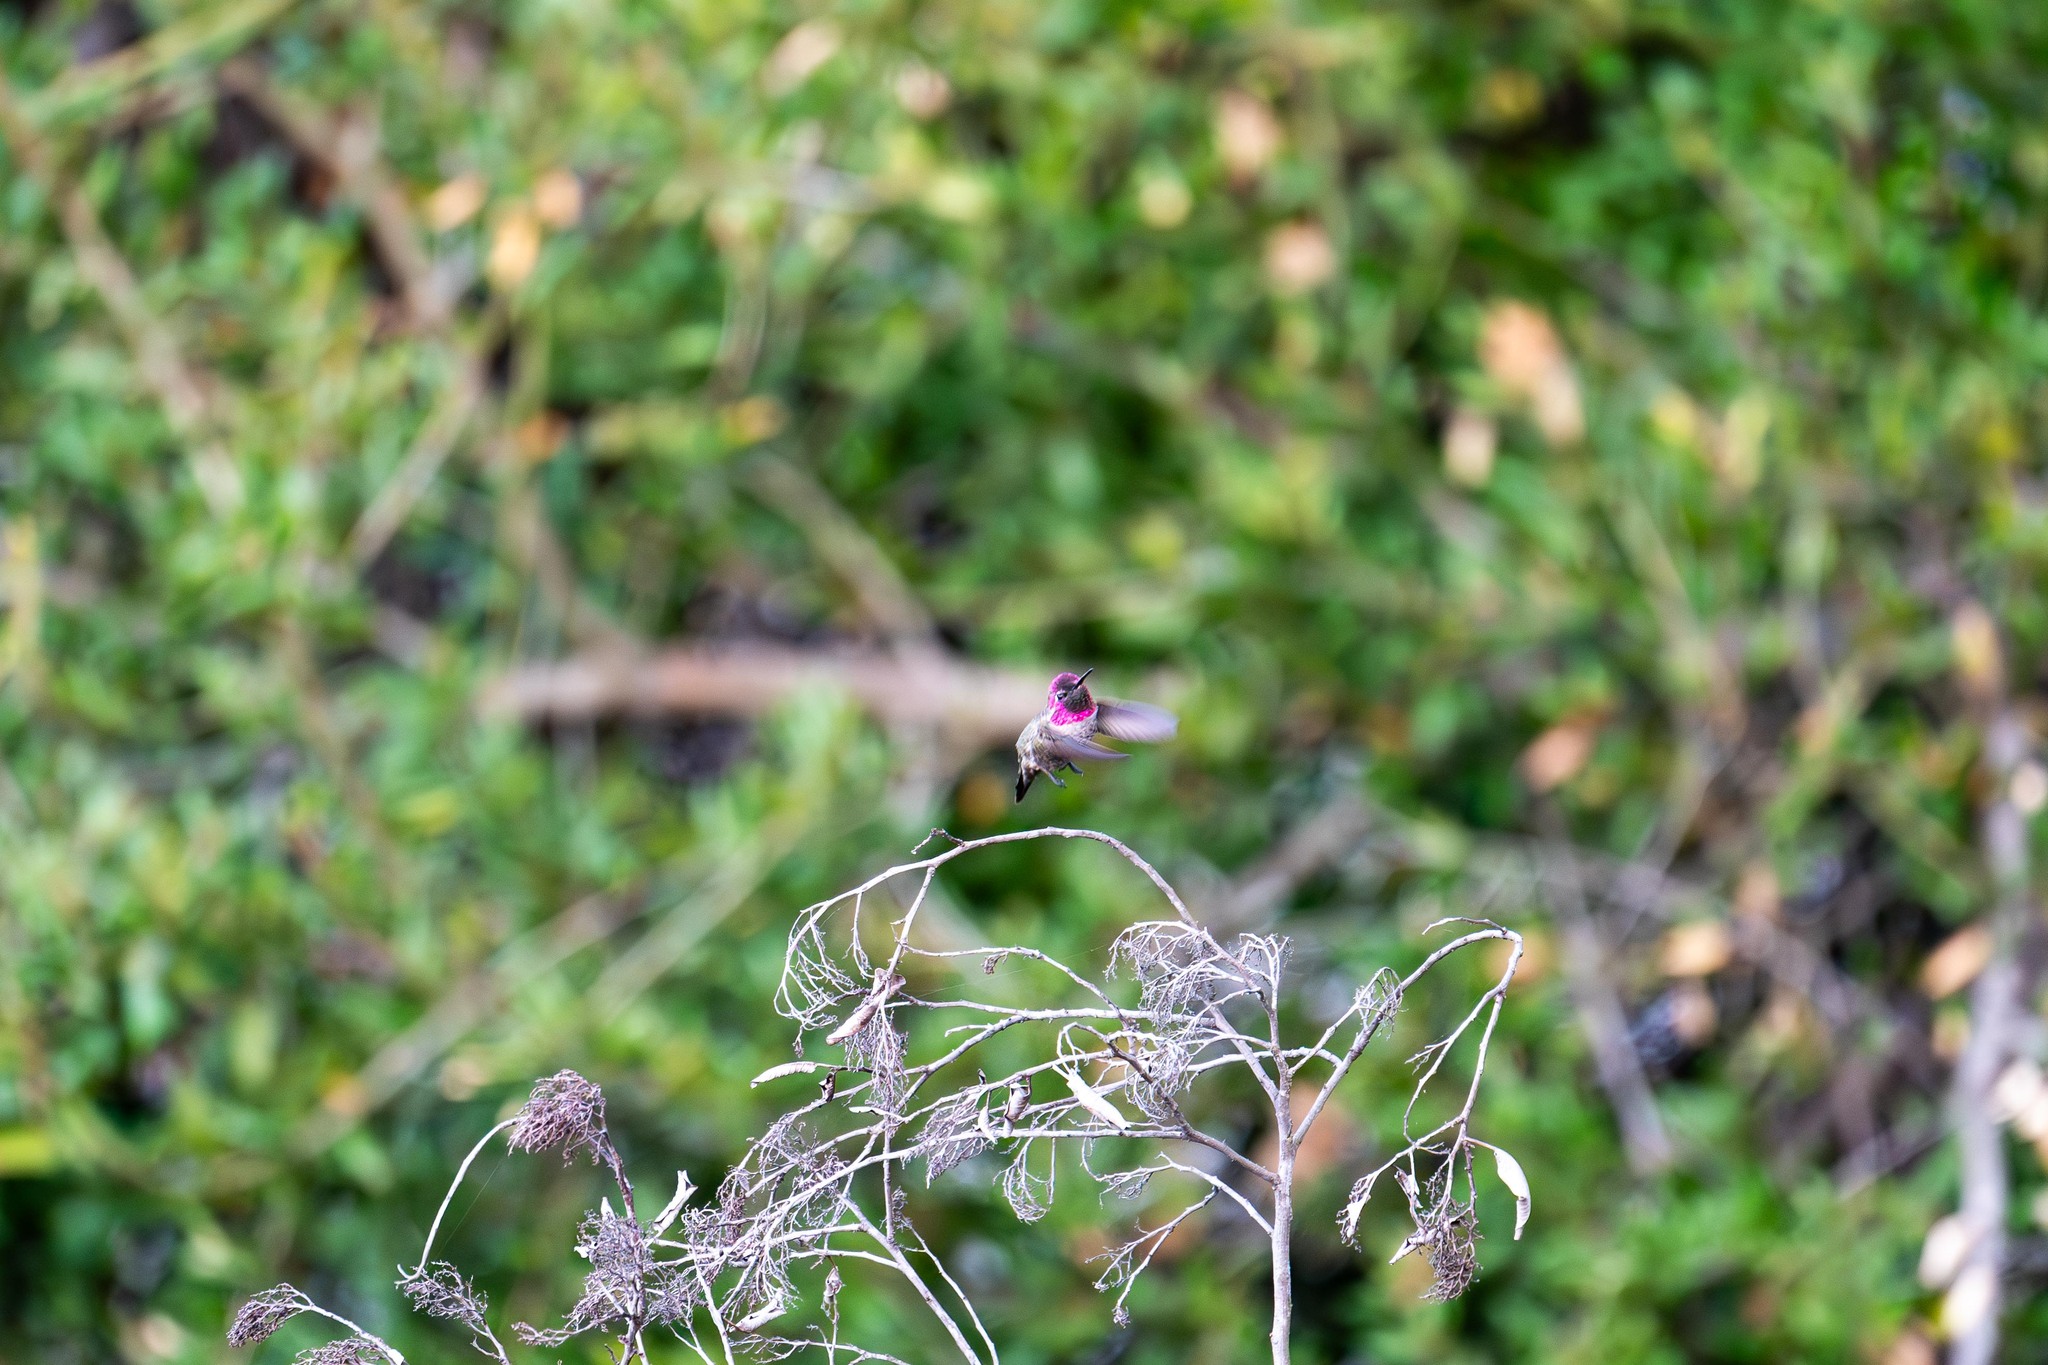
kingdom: Animalia
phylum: Chordata
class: Aves
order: Apodiformes
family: Trochilidae
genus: Calypte
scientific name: Calypte anna
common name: Anna's hummingbird
